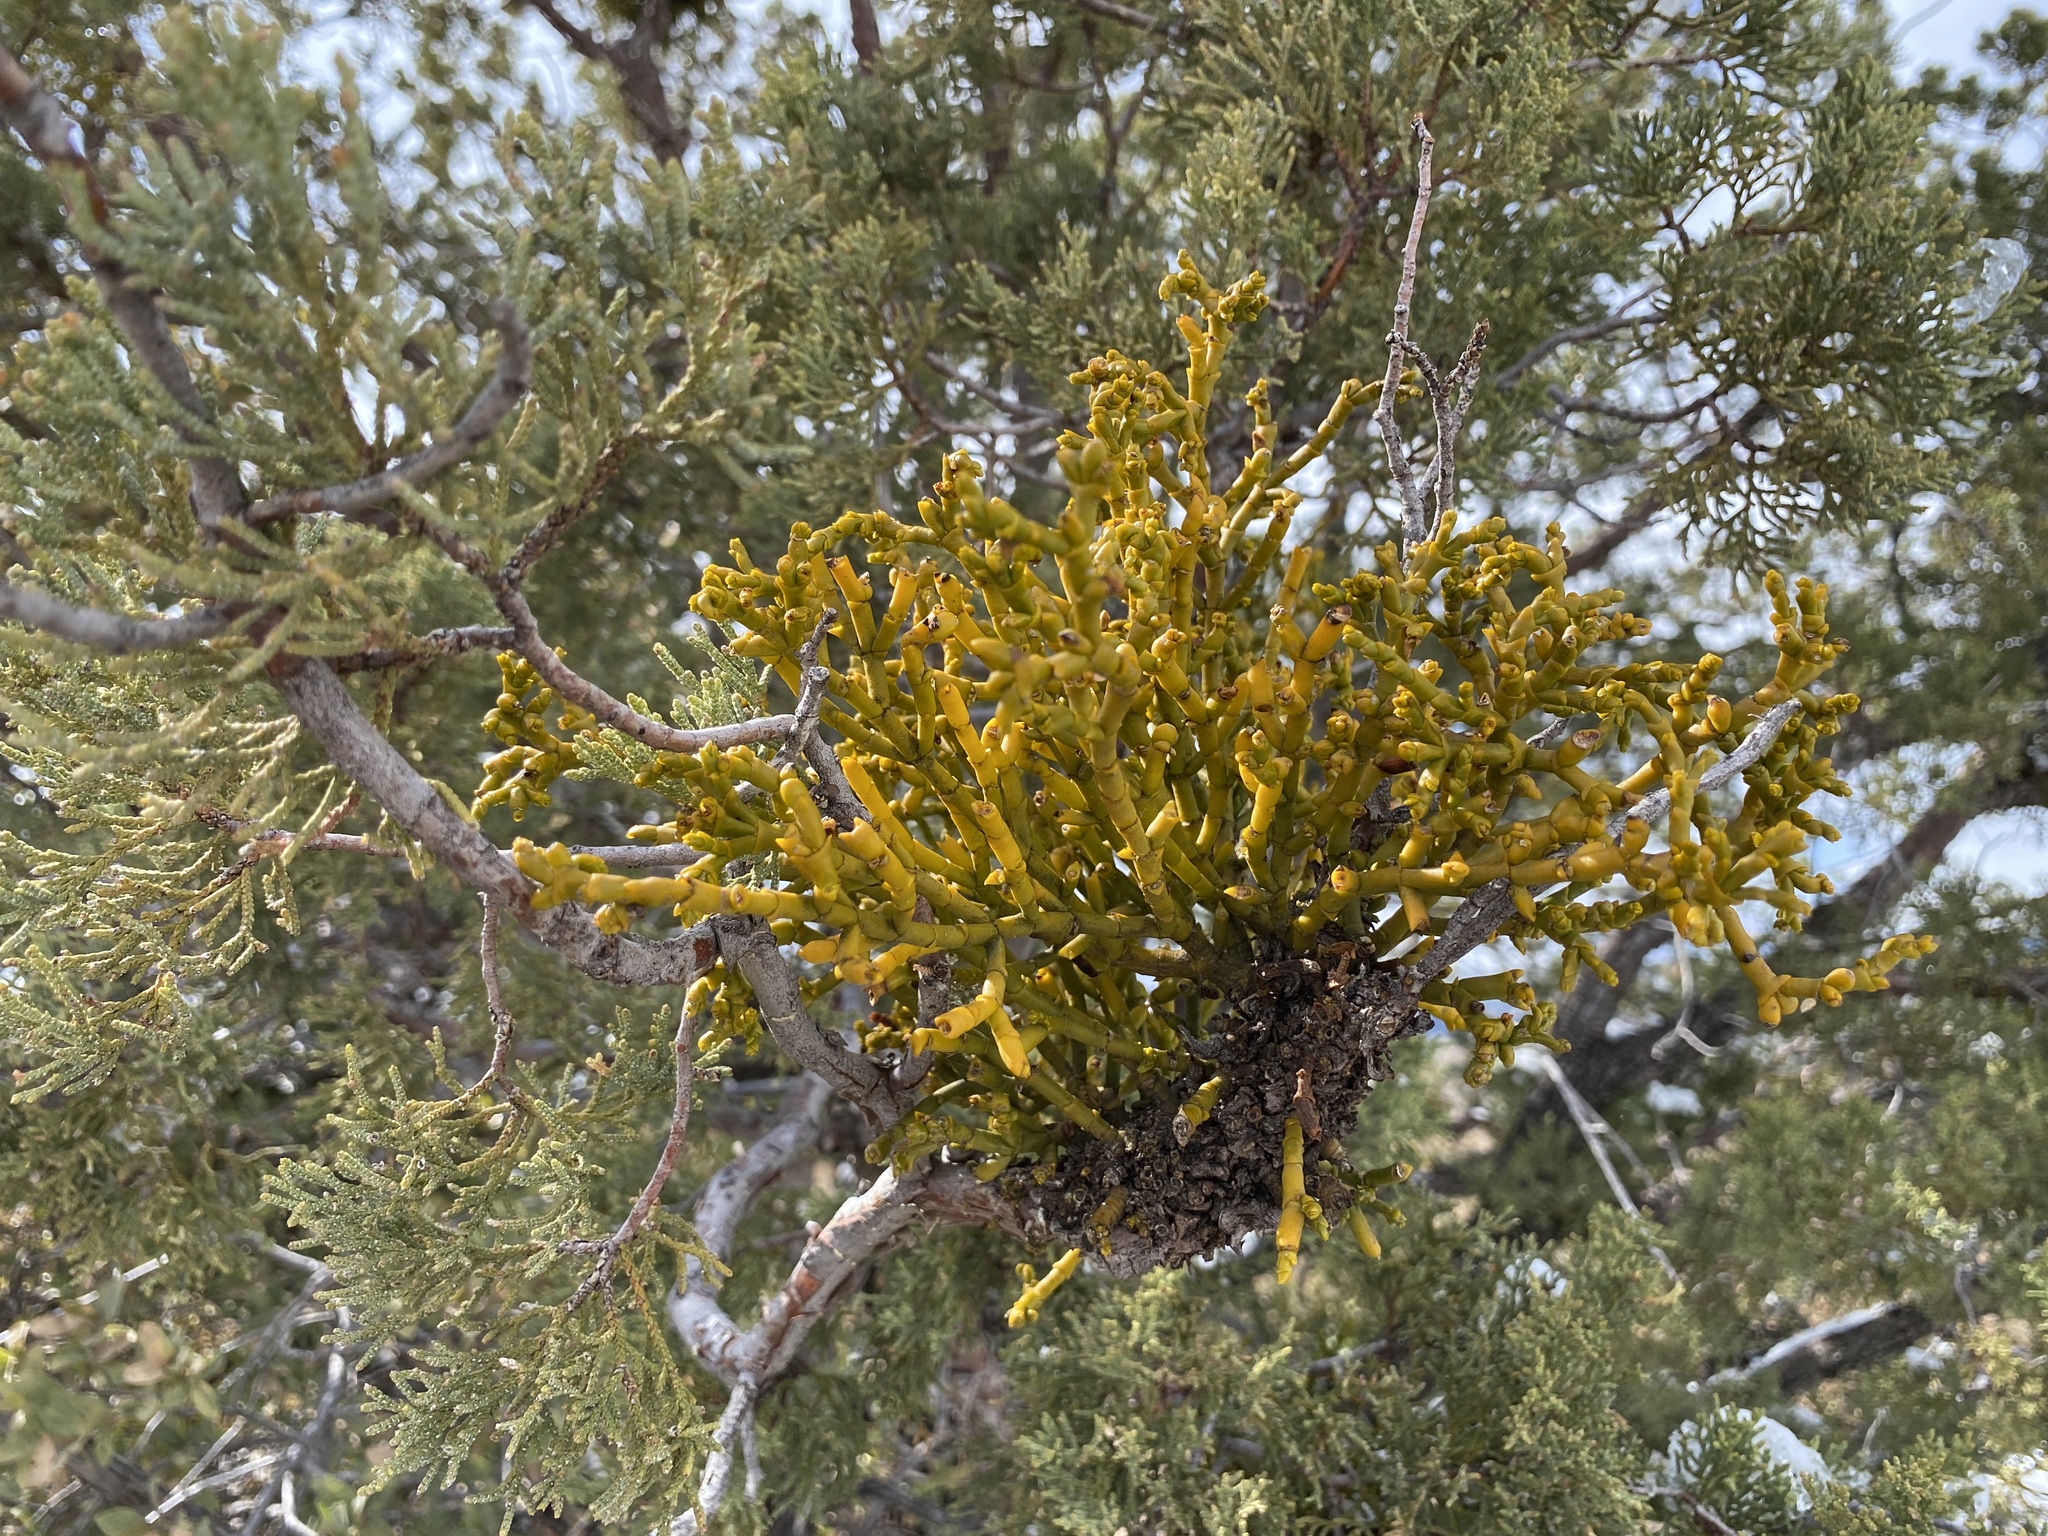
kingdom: Plantae
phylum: Tracheophyta
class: Magnoliopsida
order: Santalales
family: Viscaceae
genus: Phoradendron
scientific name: Phoradendron juniperinum
